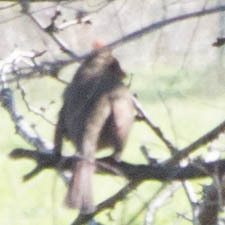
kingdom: Animalia
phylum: Chordata
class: Aves
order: Passeriformes
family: Cardinalidae
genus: Cardinalis
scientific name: Cardinalis cardinalis
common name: Northern cardinal
